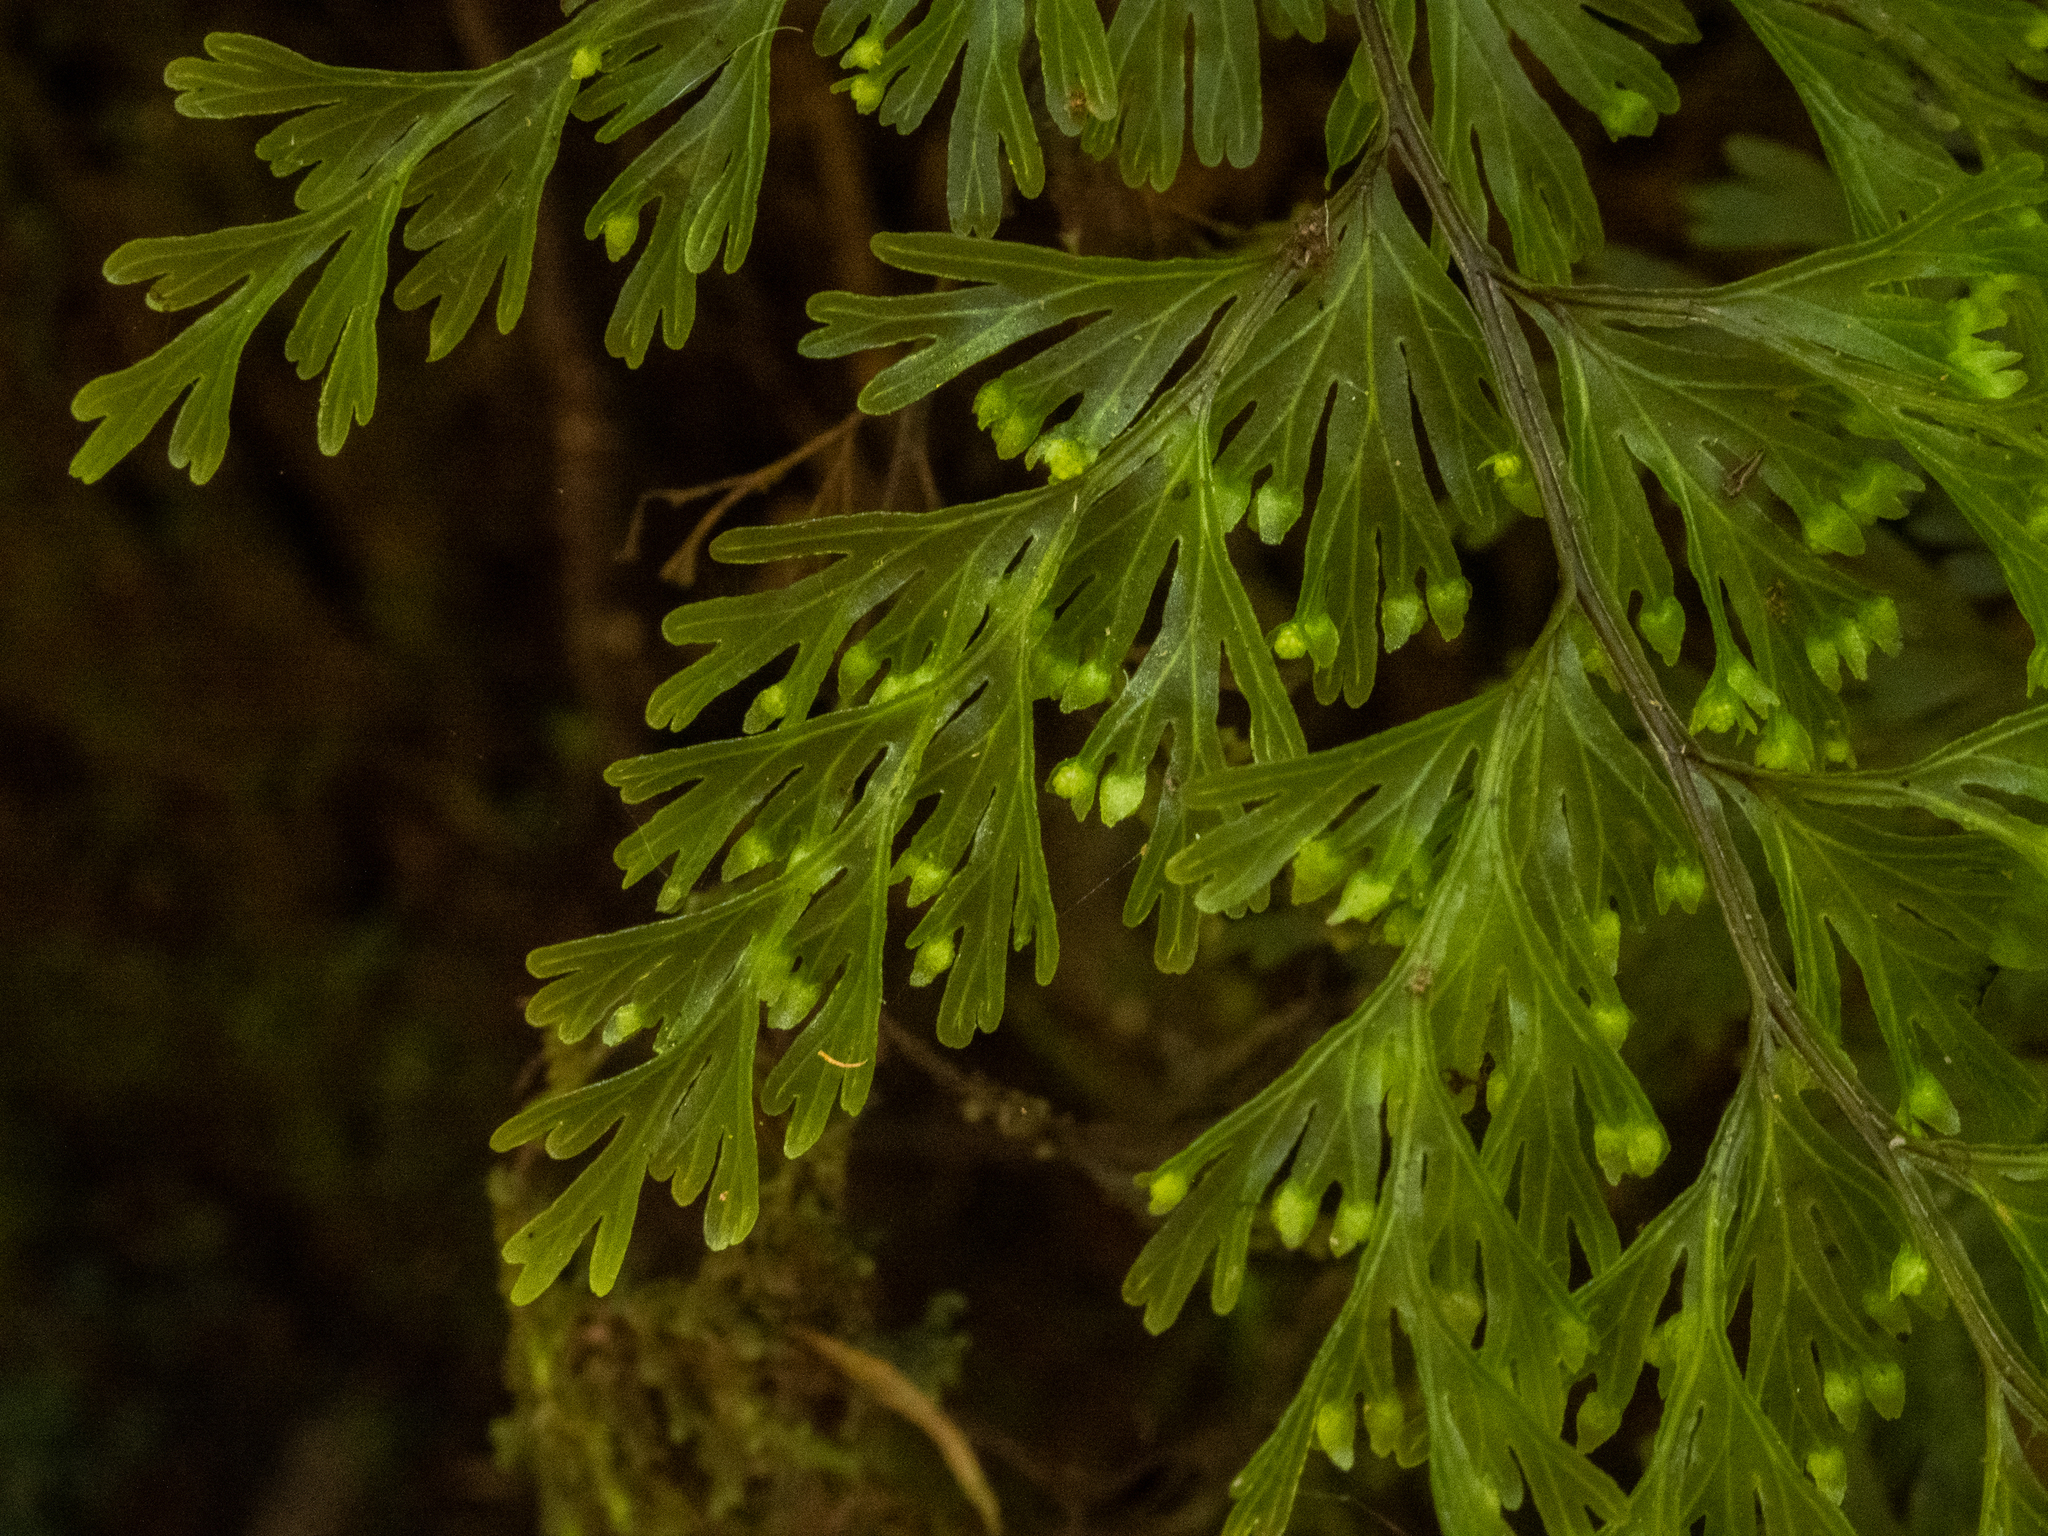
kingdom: Plantae
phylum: Tracheophyta
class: Polypodiopsida
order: Hymenophyllales
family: Hymenophyllaceae
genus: Hymenophyllum
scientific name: Hymenophyllum demissum
